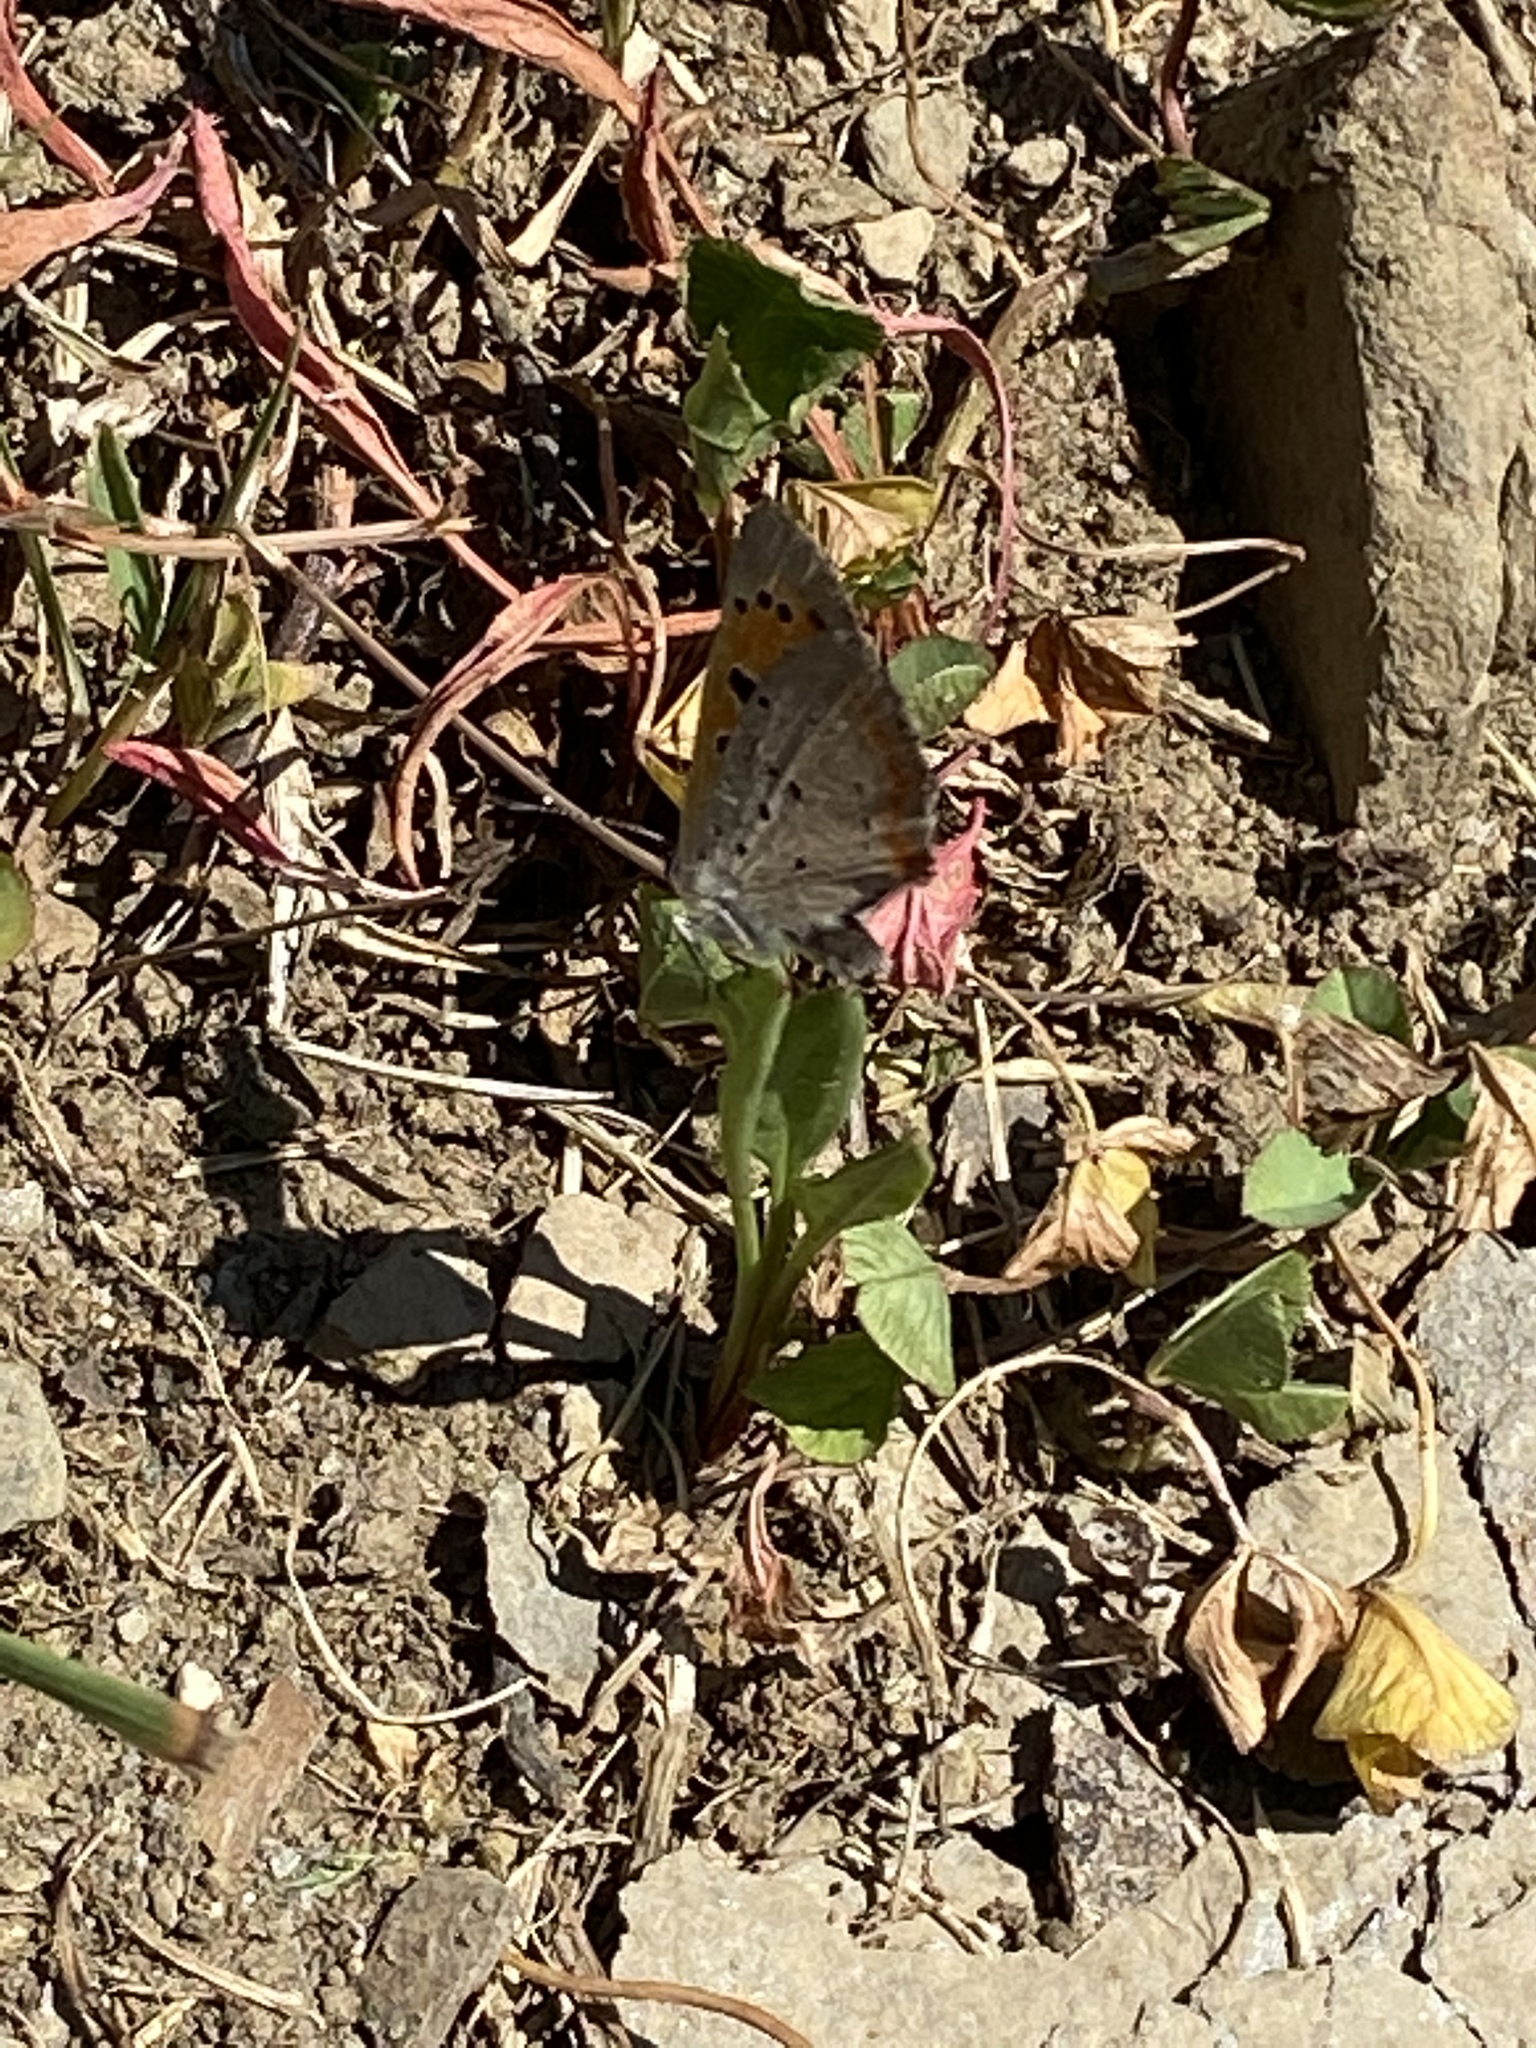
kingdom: Animalia
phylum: Arthropoda
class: Insecta
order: Lepidoptera
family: Lycaenidae
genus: Lycaena
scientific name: Lycaena hypophlaeas
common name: American copper
